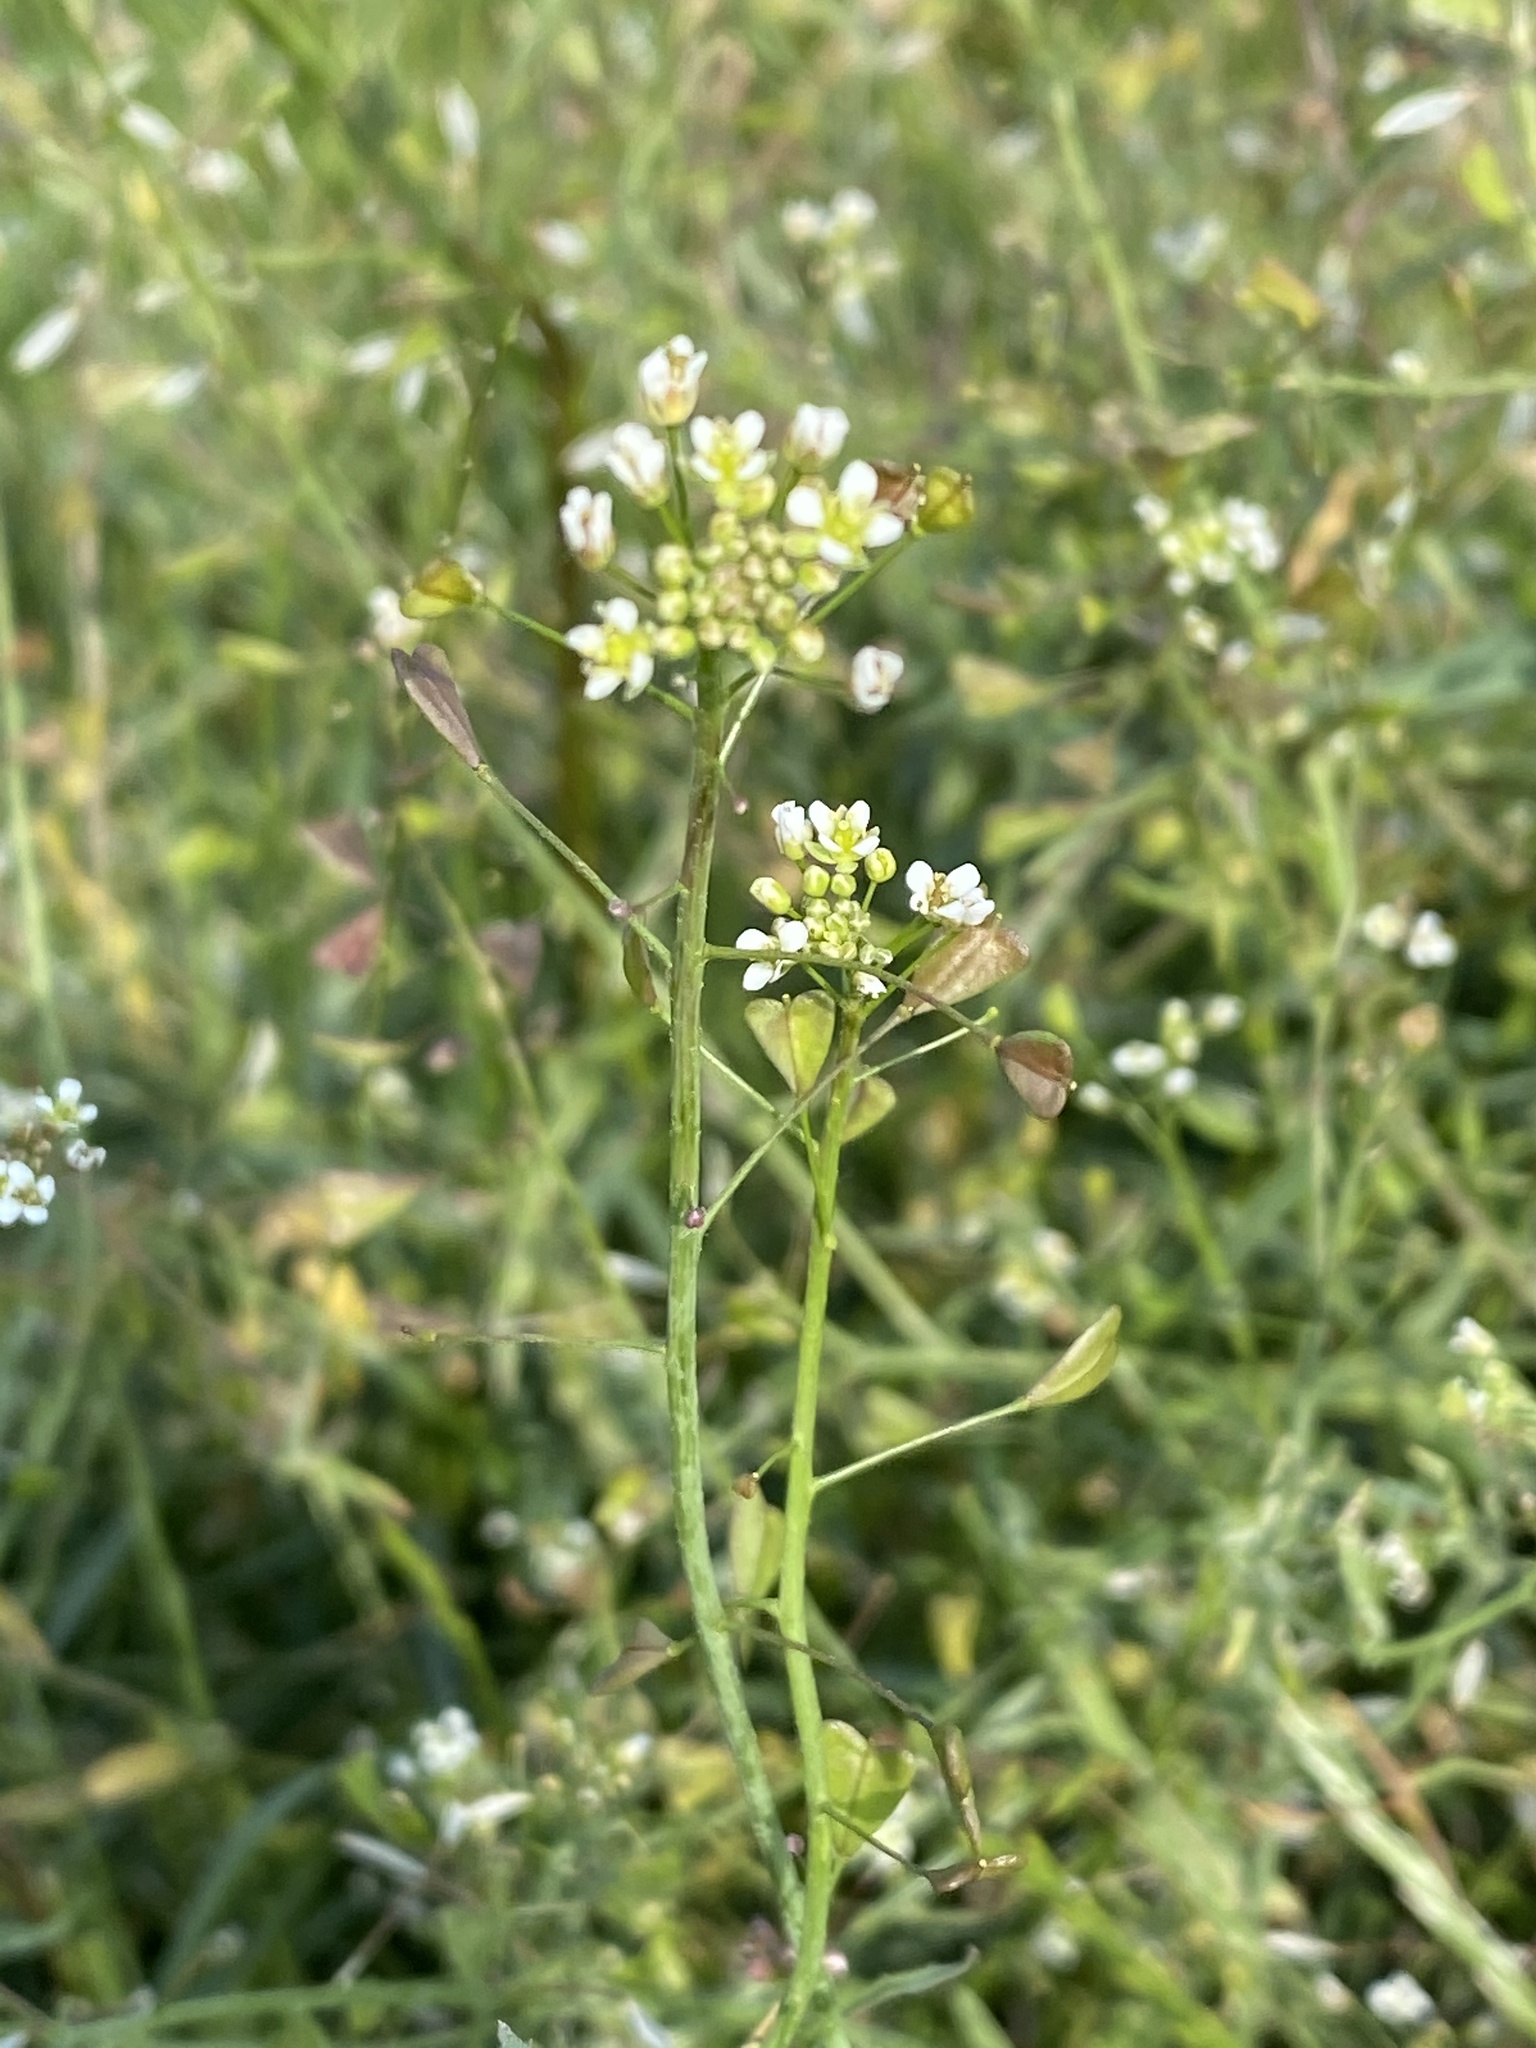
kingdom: Plantae
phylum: Tracheophyta
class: Magnoliopsida
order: Brassicales
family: Brassicaceae
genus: Capsella
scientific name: Capsella bursa-pastoris
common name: Shepherd's purse
